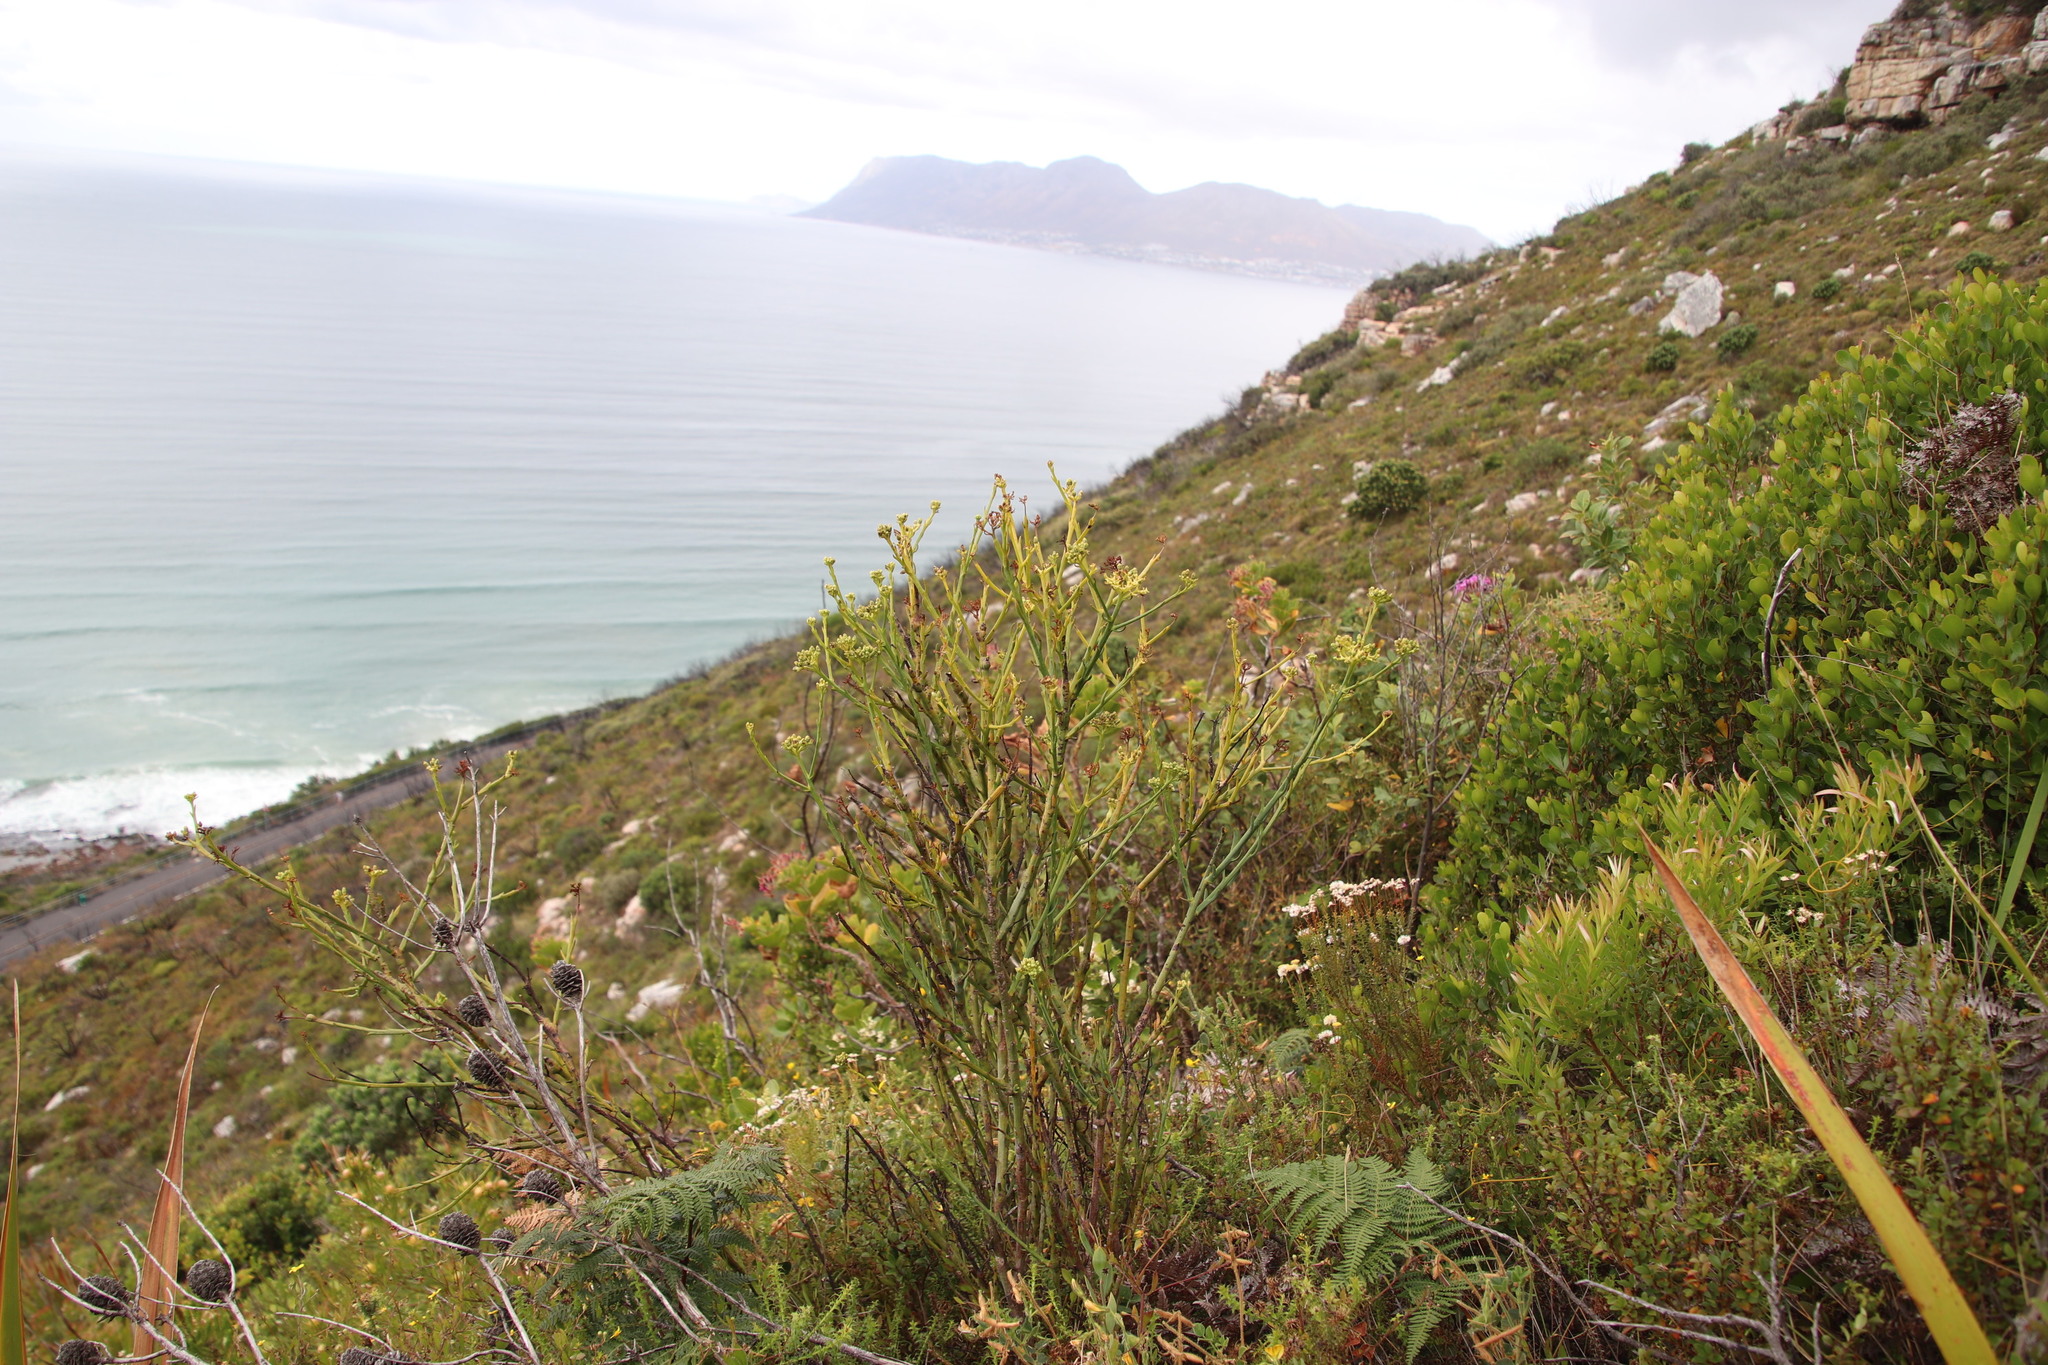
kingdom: Plantae
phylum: Tracheophyta
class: Magnoliopsida
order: Santalales
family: Thesiaceae
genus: Thesium
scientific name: Thesium strictum
